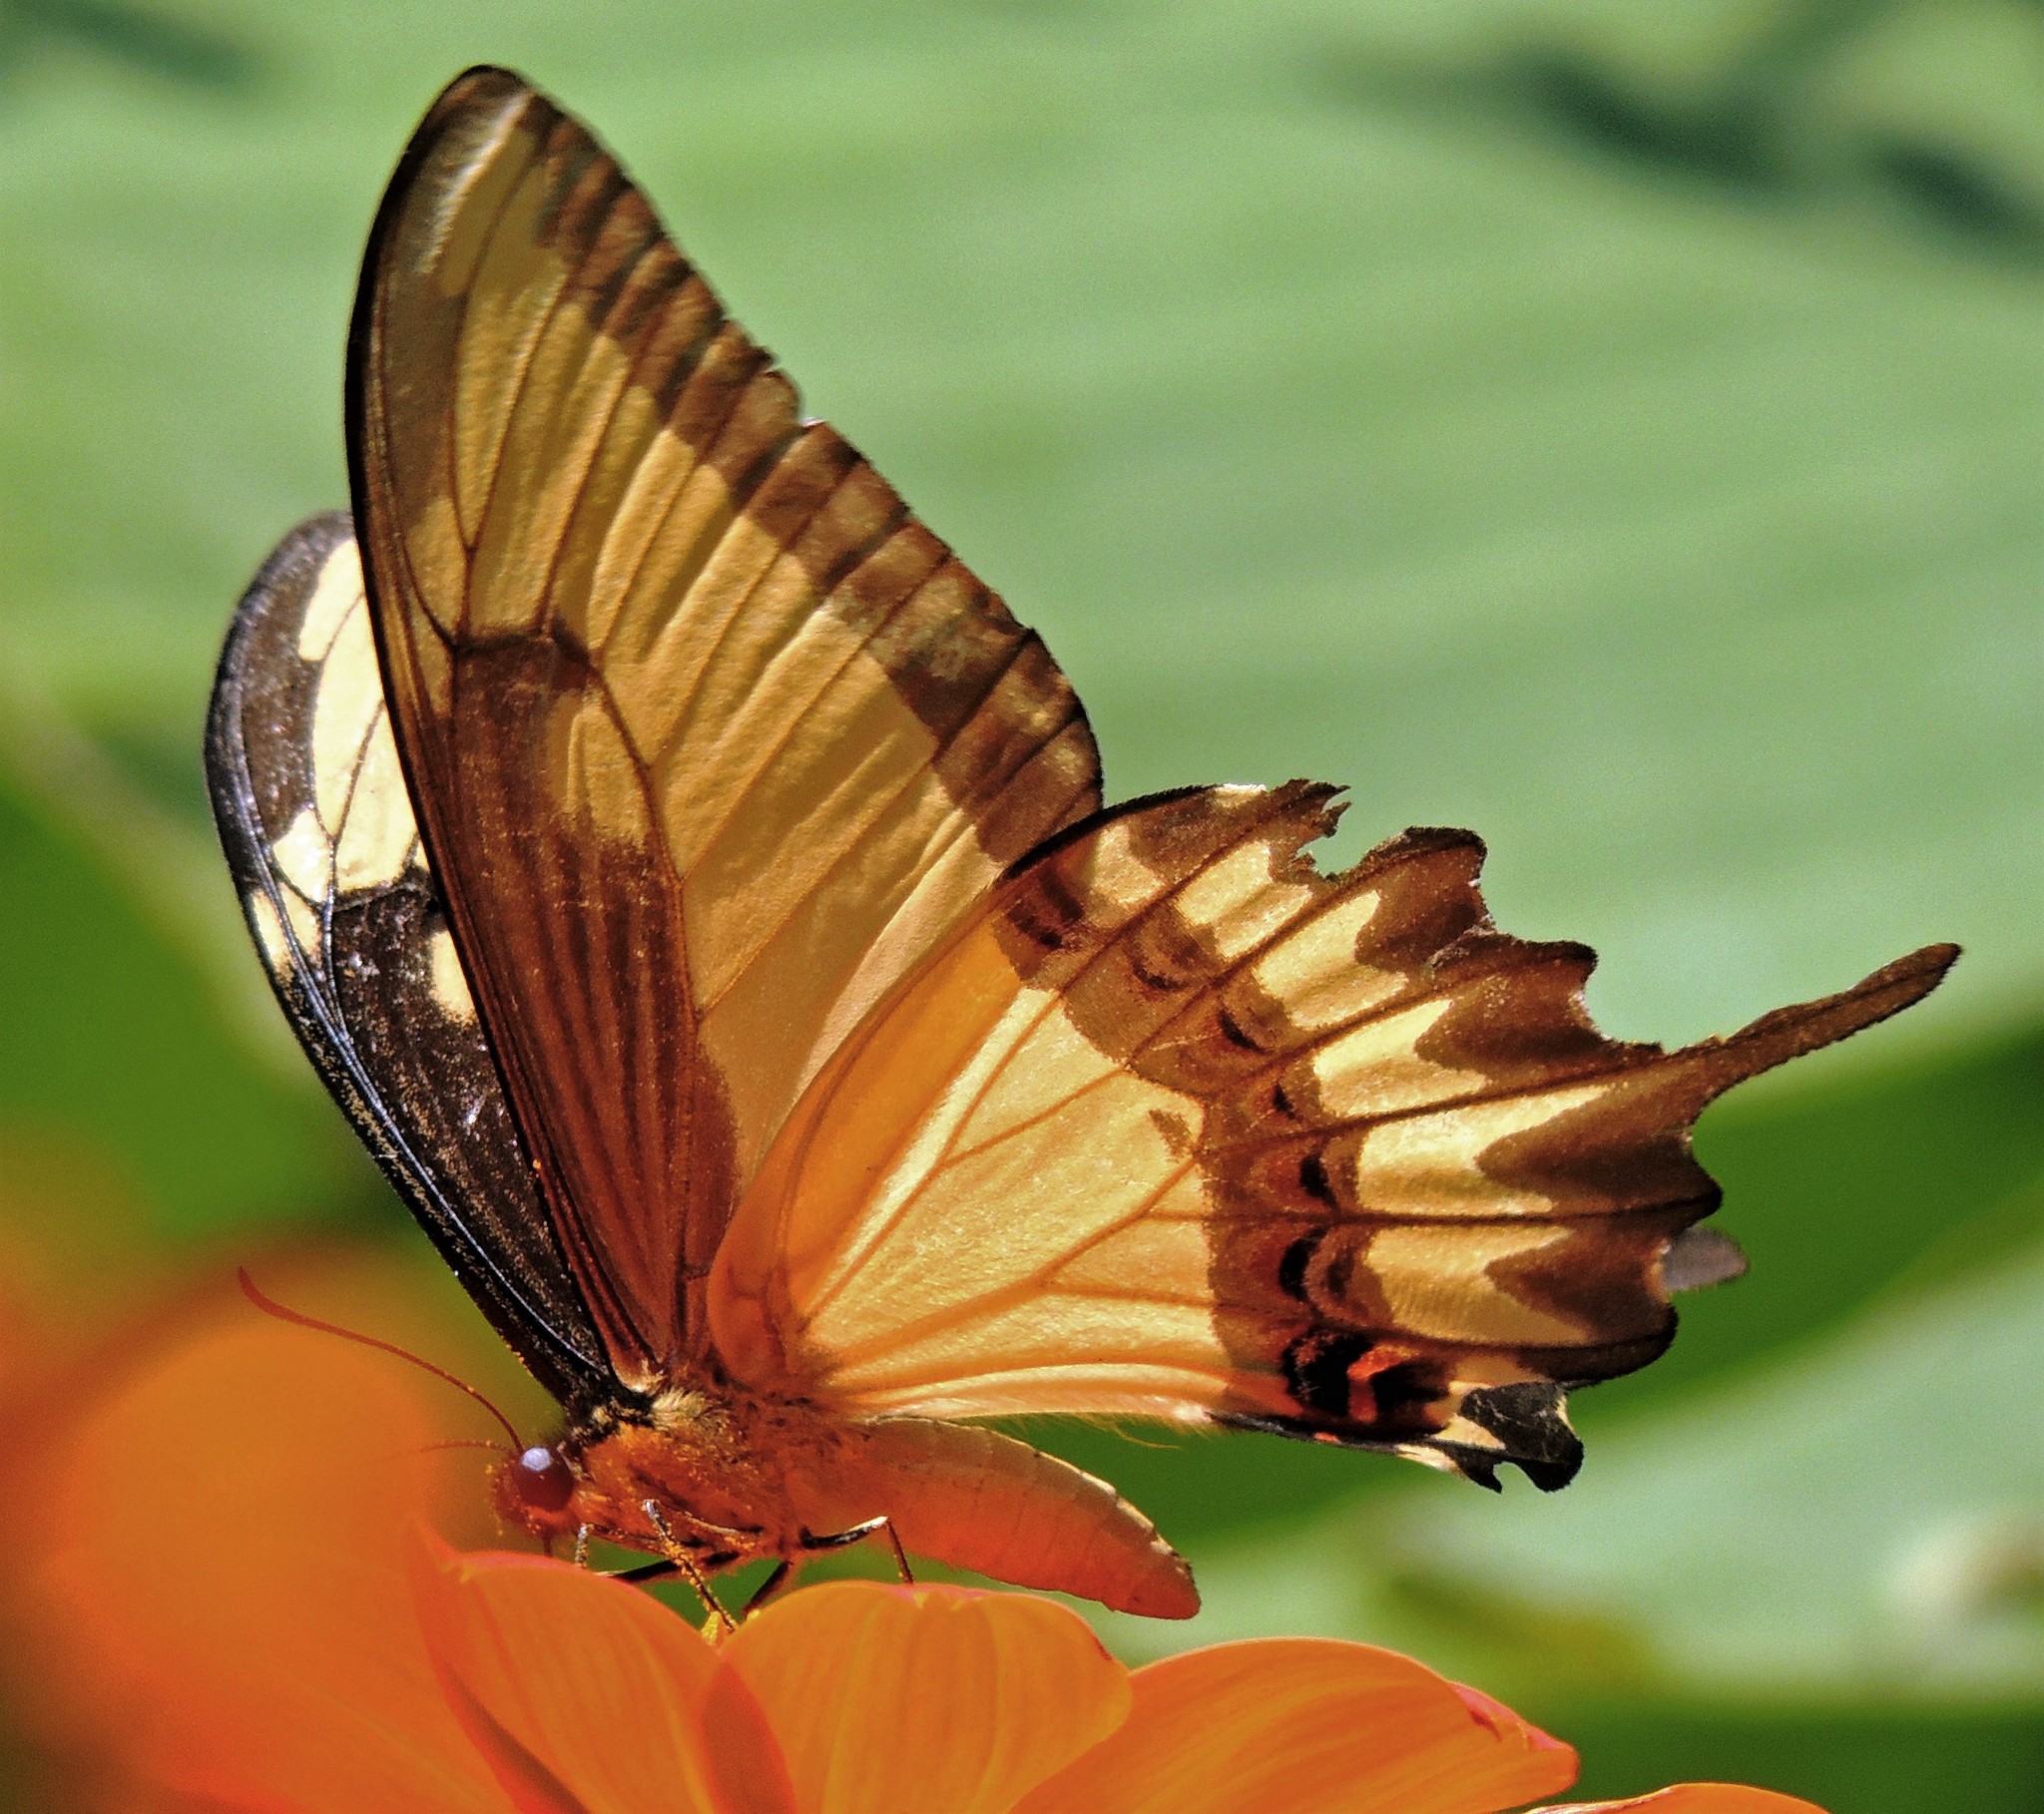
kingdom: Animalia
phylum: Arthropoda
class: Insecta
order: Lepidoptera
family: Papilionidae
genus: Papilio
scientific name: Papilio astyalus
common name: Astyalus swallowtail
